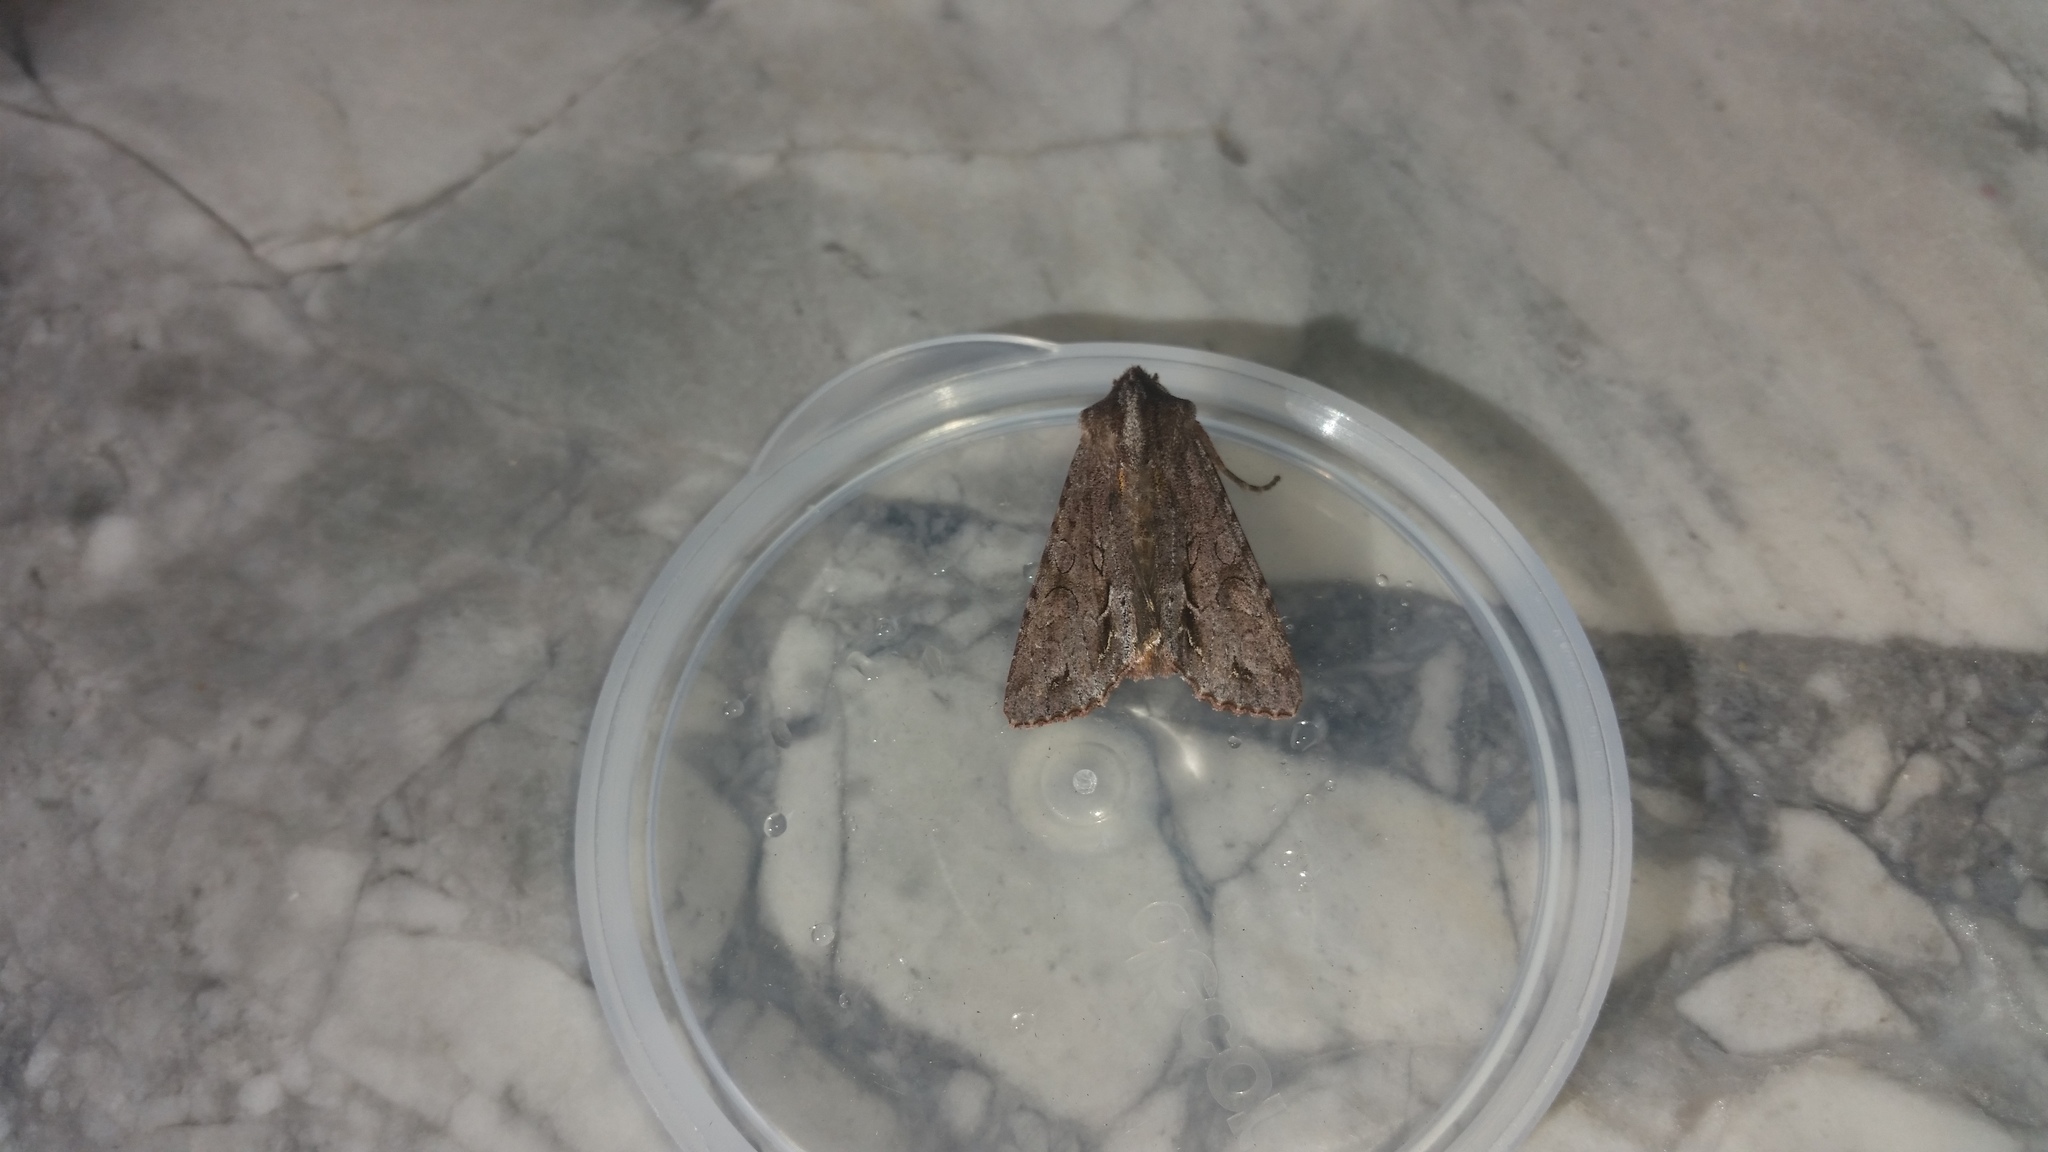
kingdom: Animalia
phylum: Arthropoda
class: Insecta
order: Lepidoptera
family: Noctuidae
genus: Ichneutica
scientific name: Ichneutica
